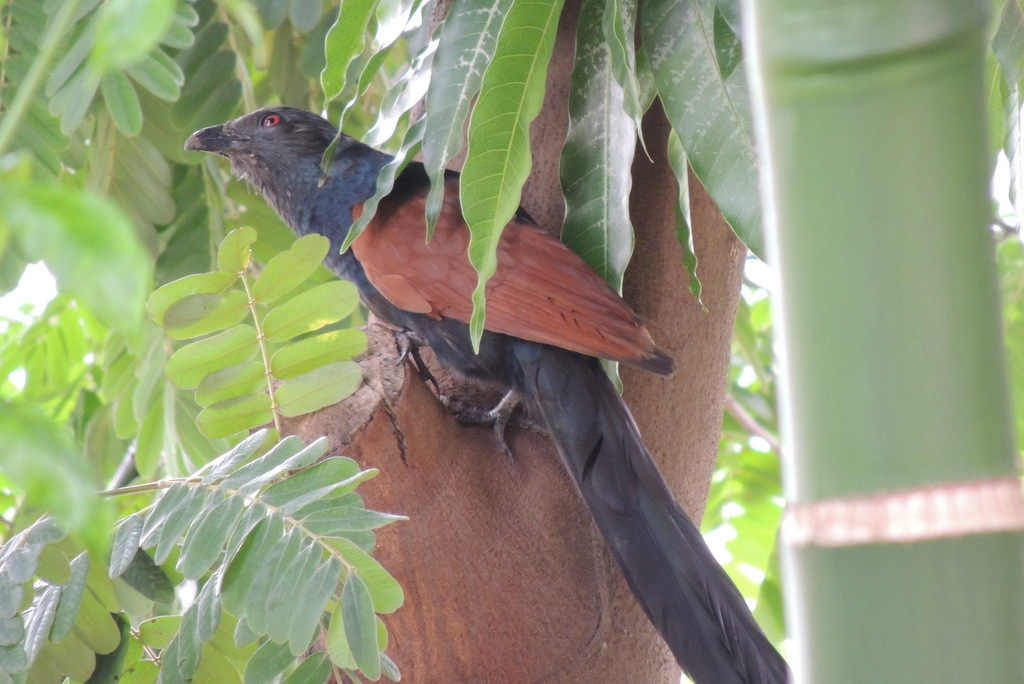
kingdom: Animalia
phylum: Chordata
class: Aves
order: Cuculiformes
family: Cuculidae
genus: Centropus
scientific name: Centropus sinensis
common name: Greater coucal
